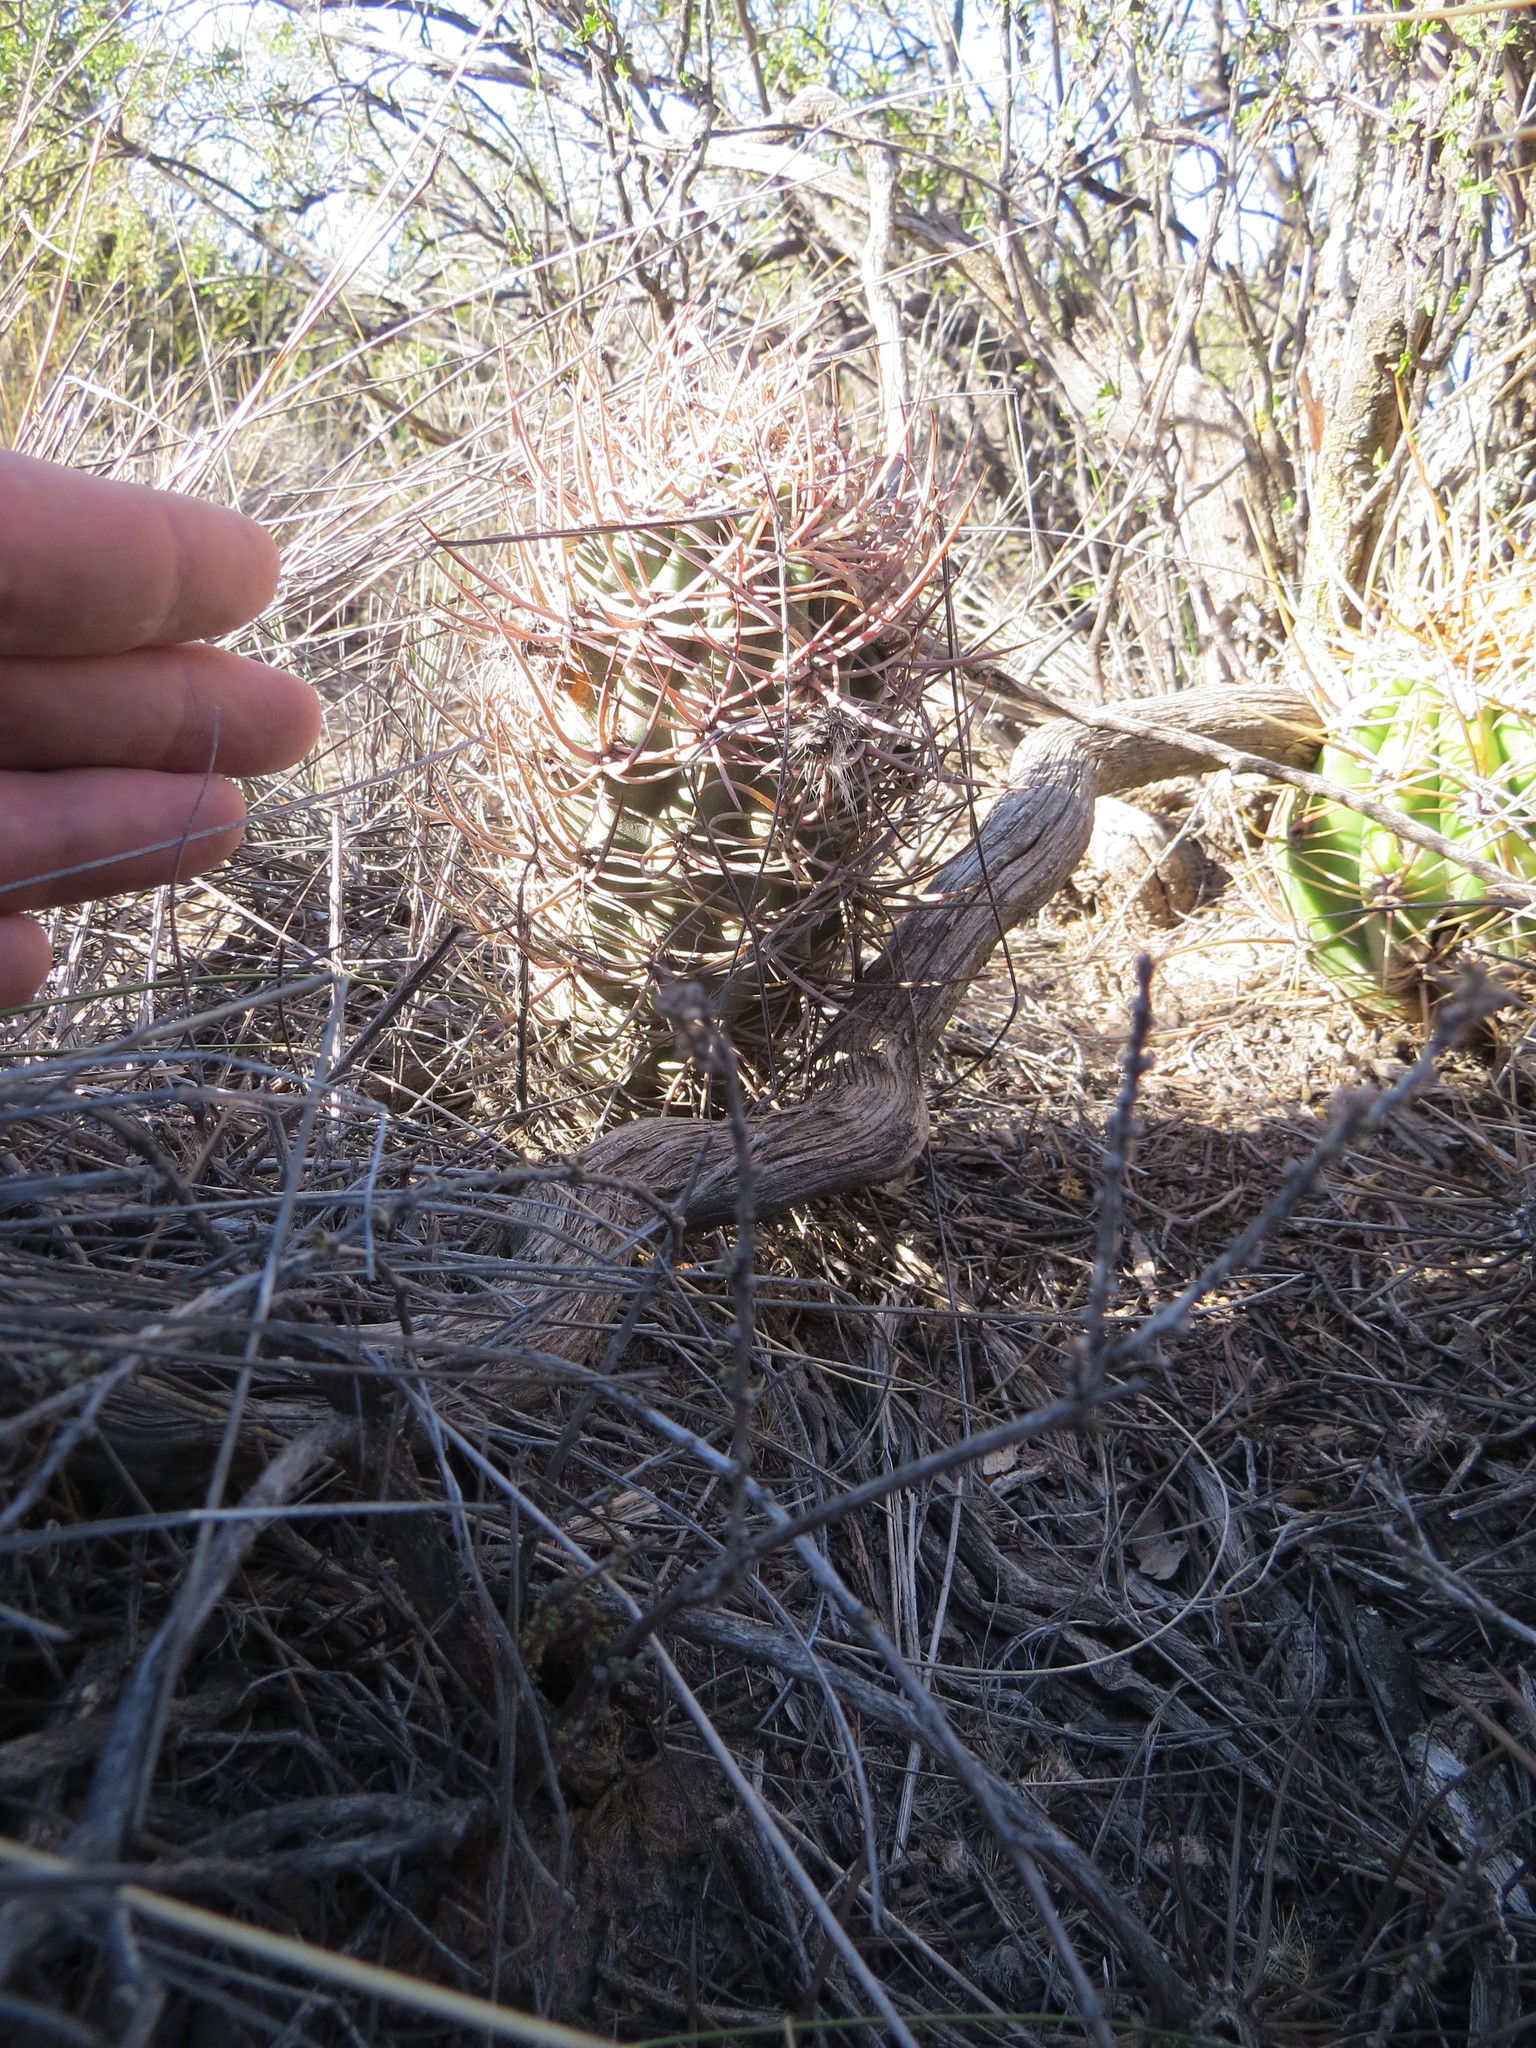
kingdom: Plantae
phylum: Tracheophyta
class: Magnoliopsida
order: Caryophyllales
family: Cactaceae
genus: Acanthocalycium
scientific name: Acanthocalycium leucanthum
